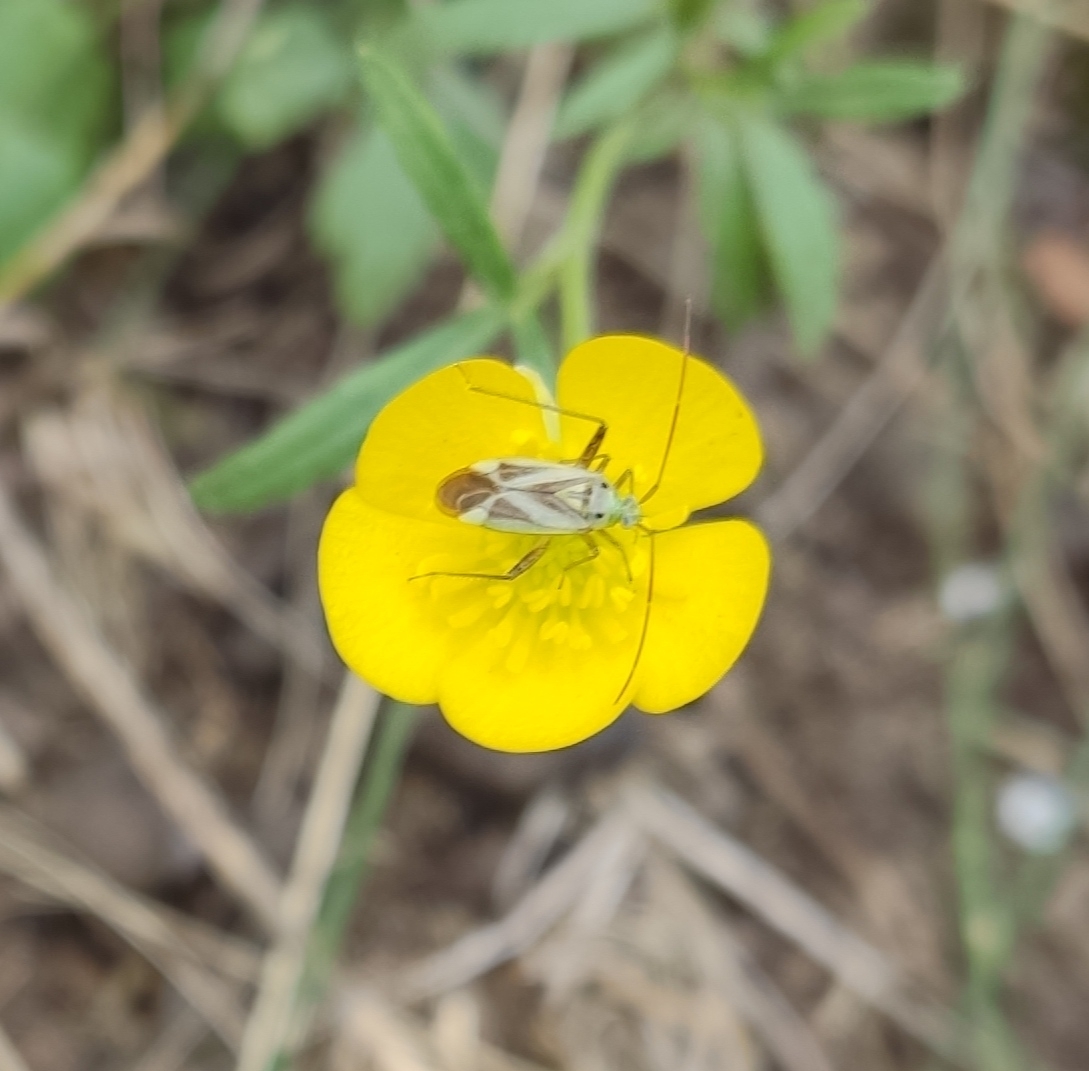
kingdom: Animalia
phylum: Arthropoda
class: Insecta
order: Hemiptera
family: Miridae
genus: Adelphocoris
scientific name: Adelphocoris lineolatus
